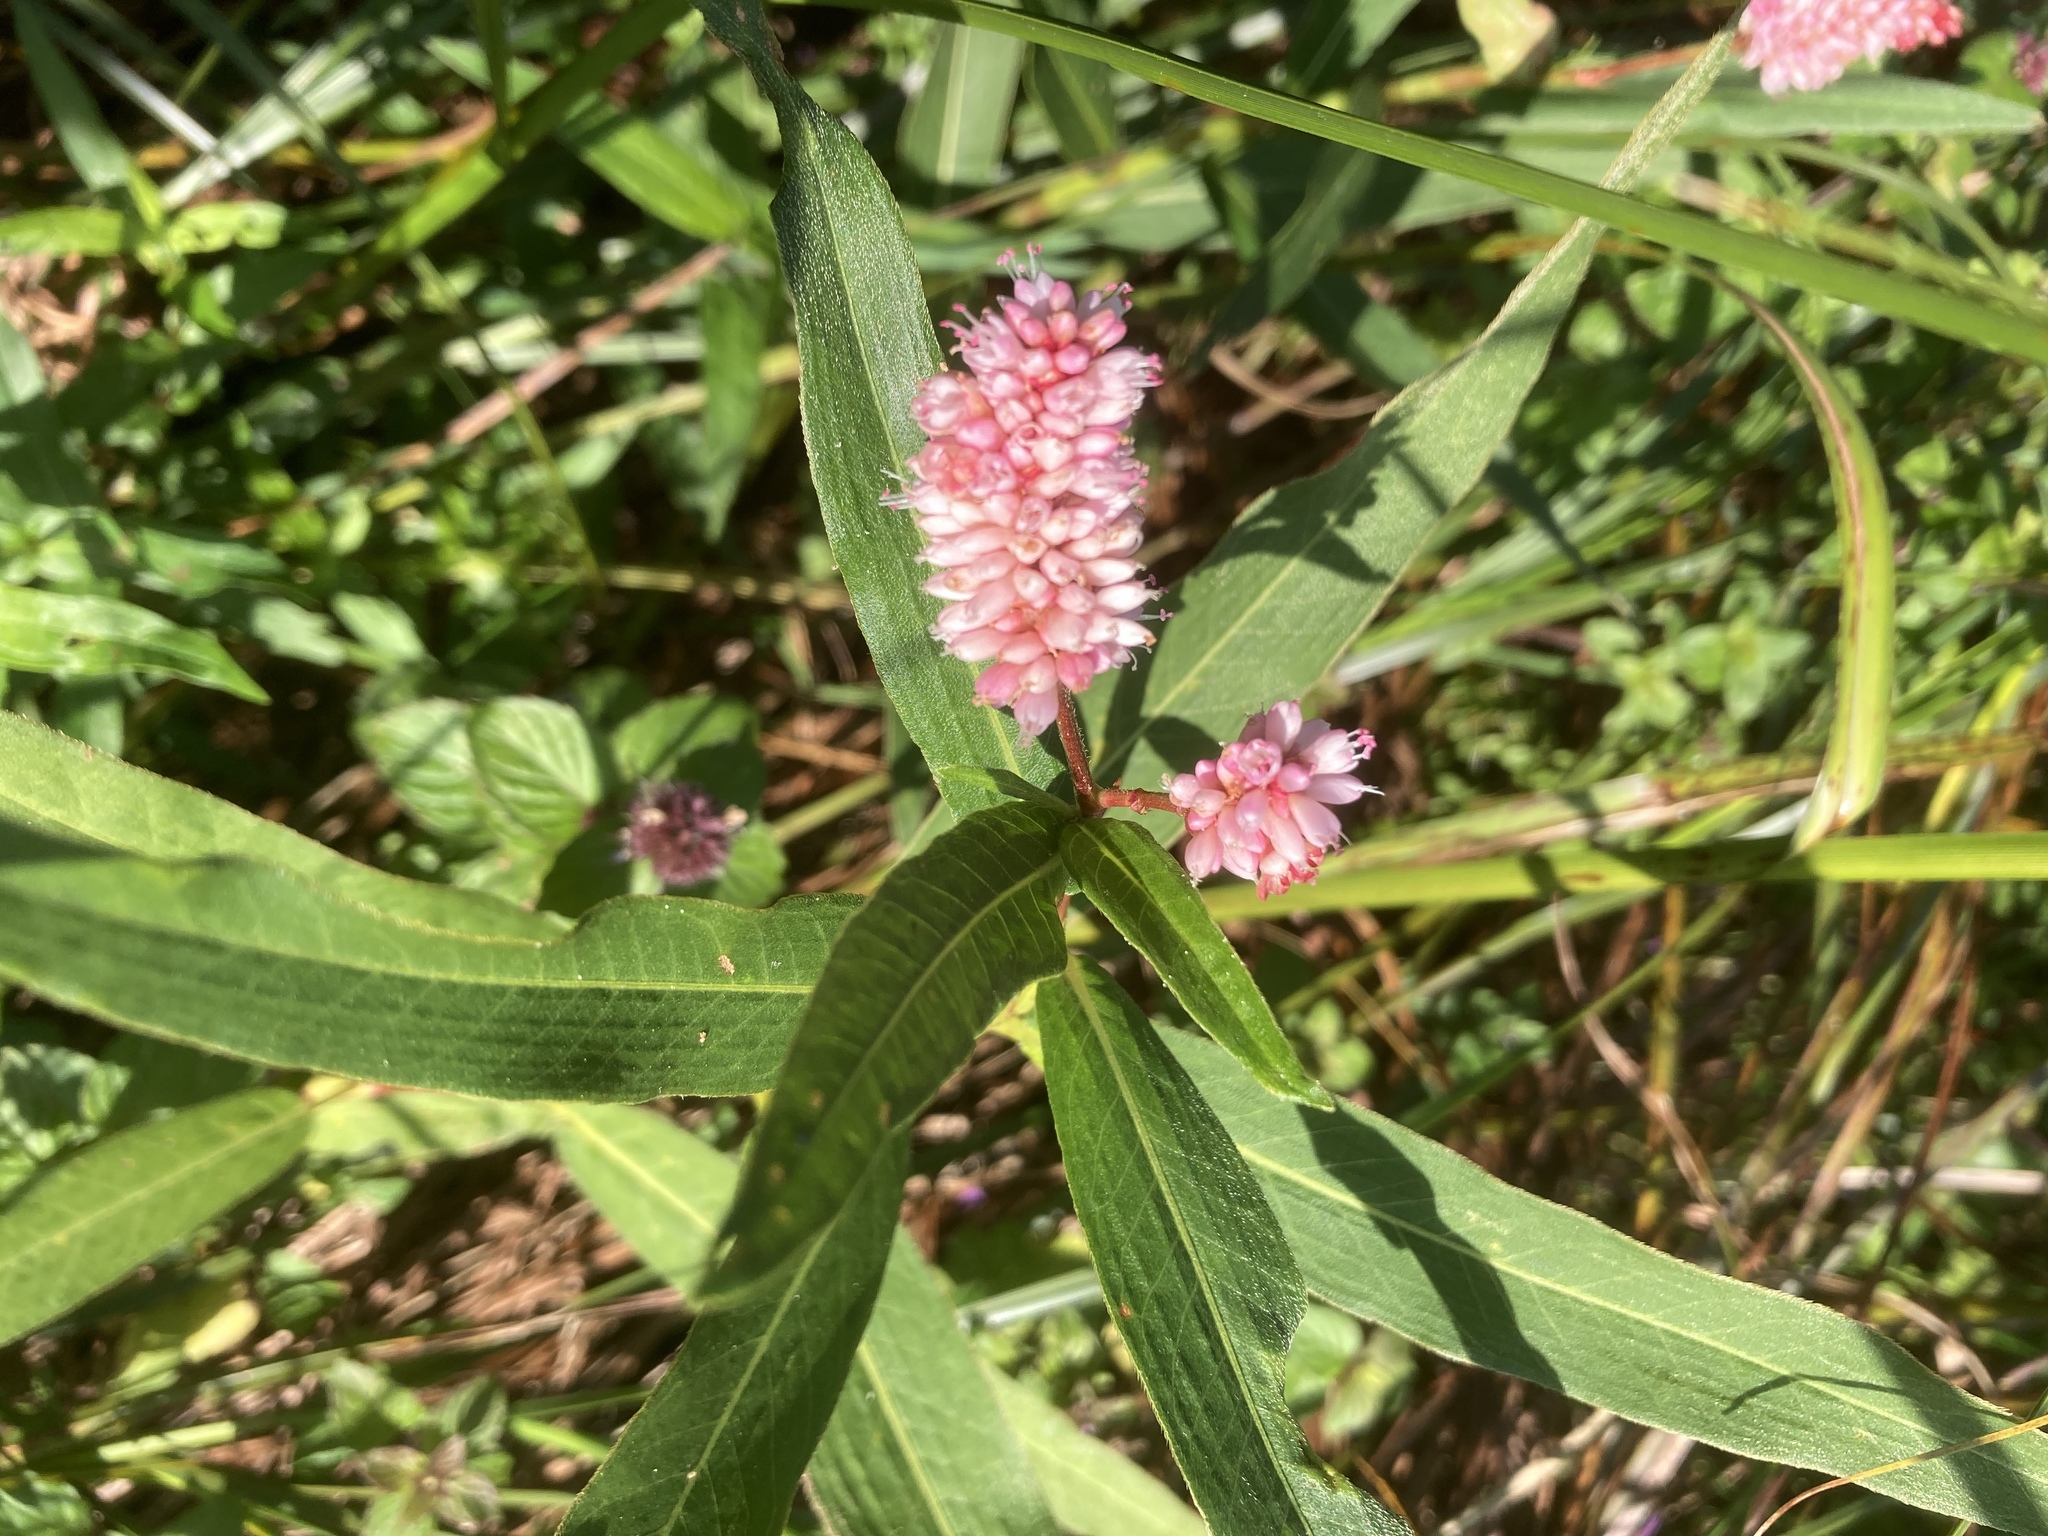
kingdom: Plantae
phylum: Tracheophyta
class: Magnoliopsida
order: Caryophyllales
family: Polygonaceae
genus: Persicaria
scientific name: Persicaria amphibia
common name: Amphibious bistort
